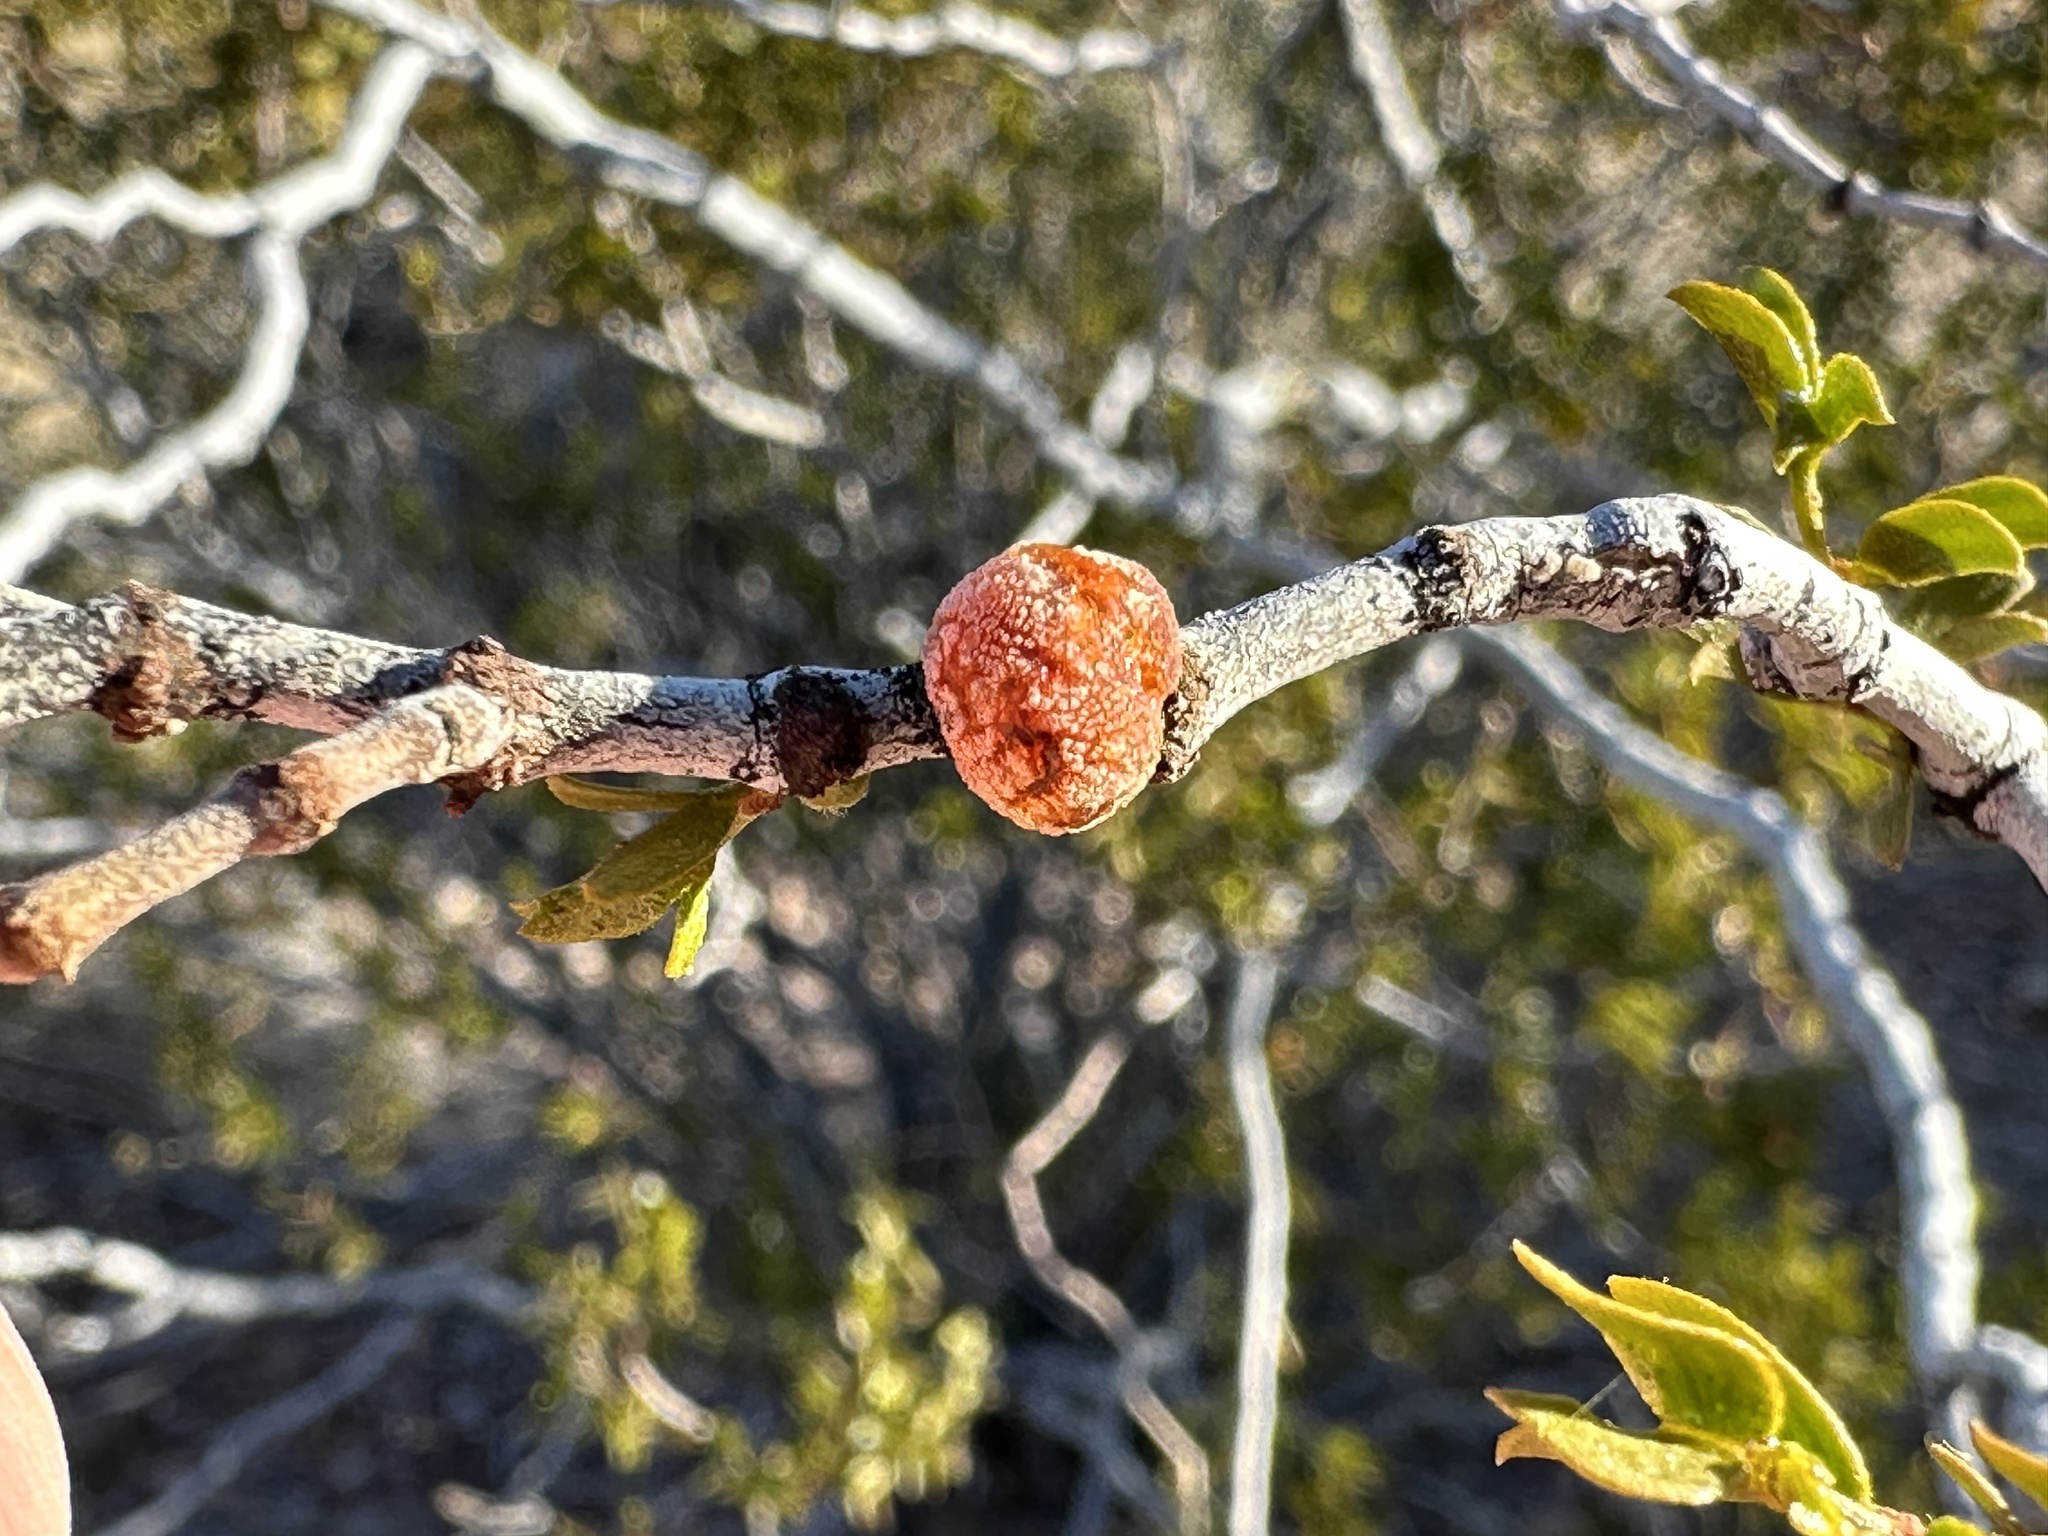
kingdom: Animalia
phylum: Arthropoda
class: Insecta
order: Hemiptera
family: Kerriidae
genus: Tachardiella
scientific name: Tachardiella larreae
